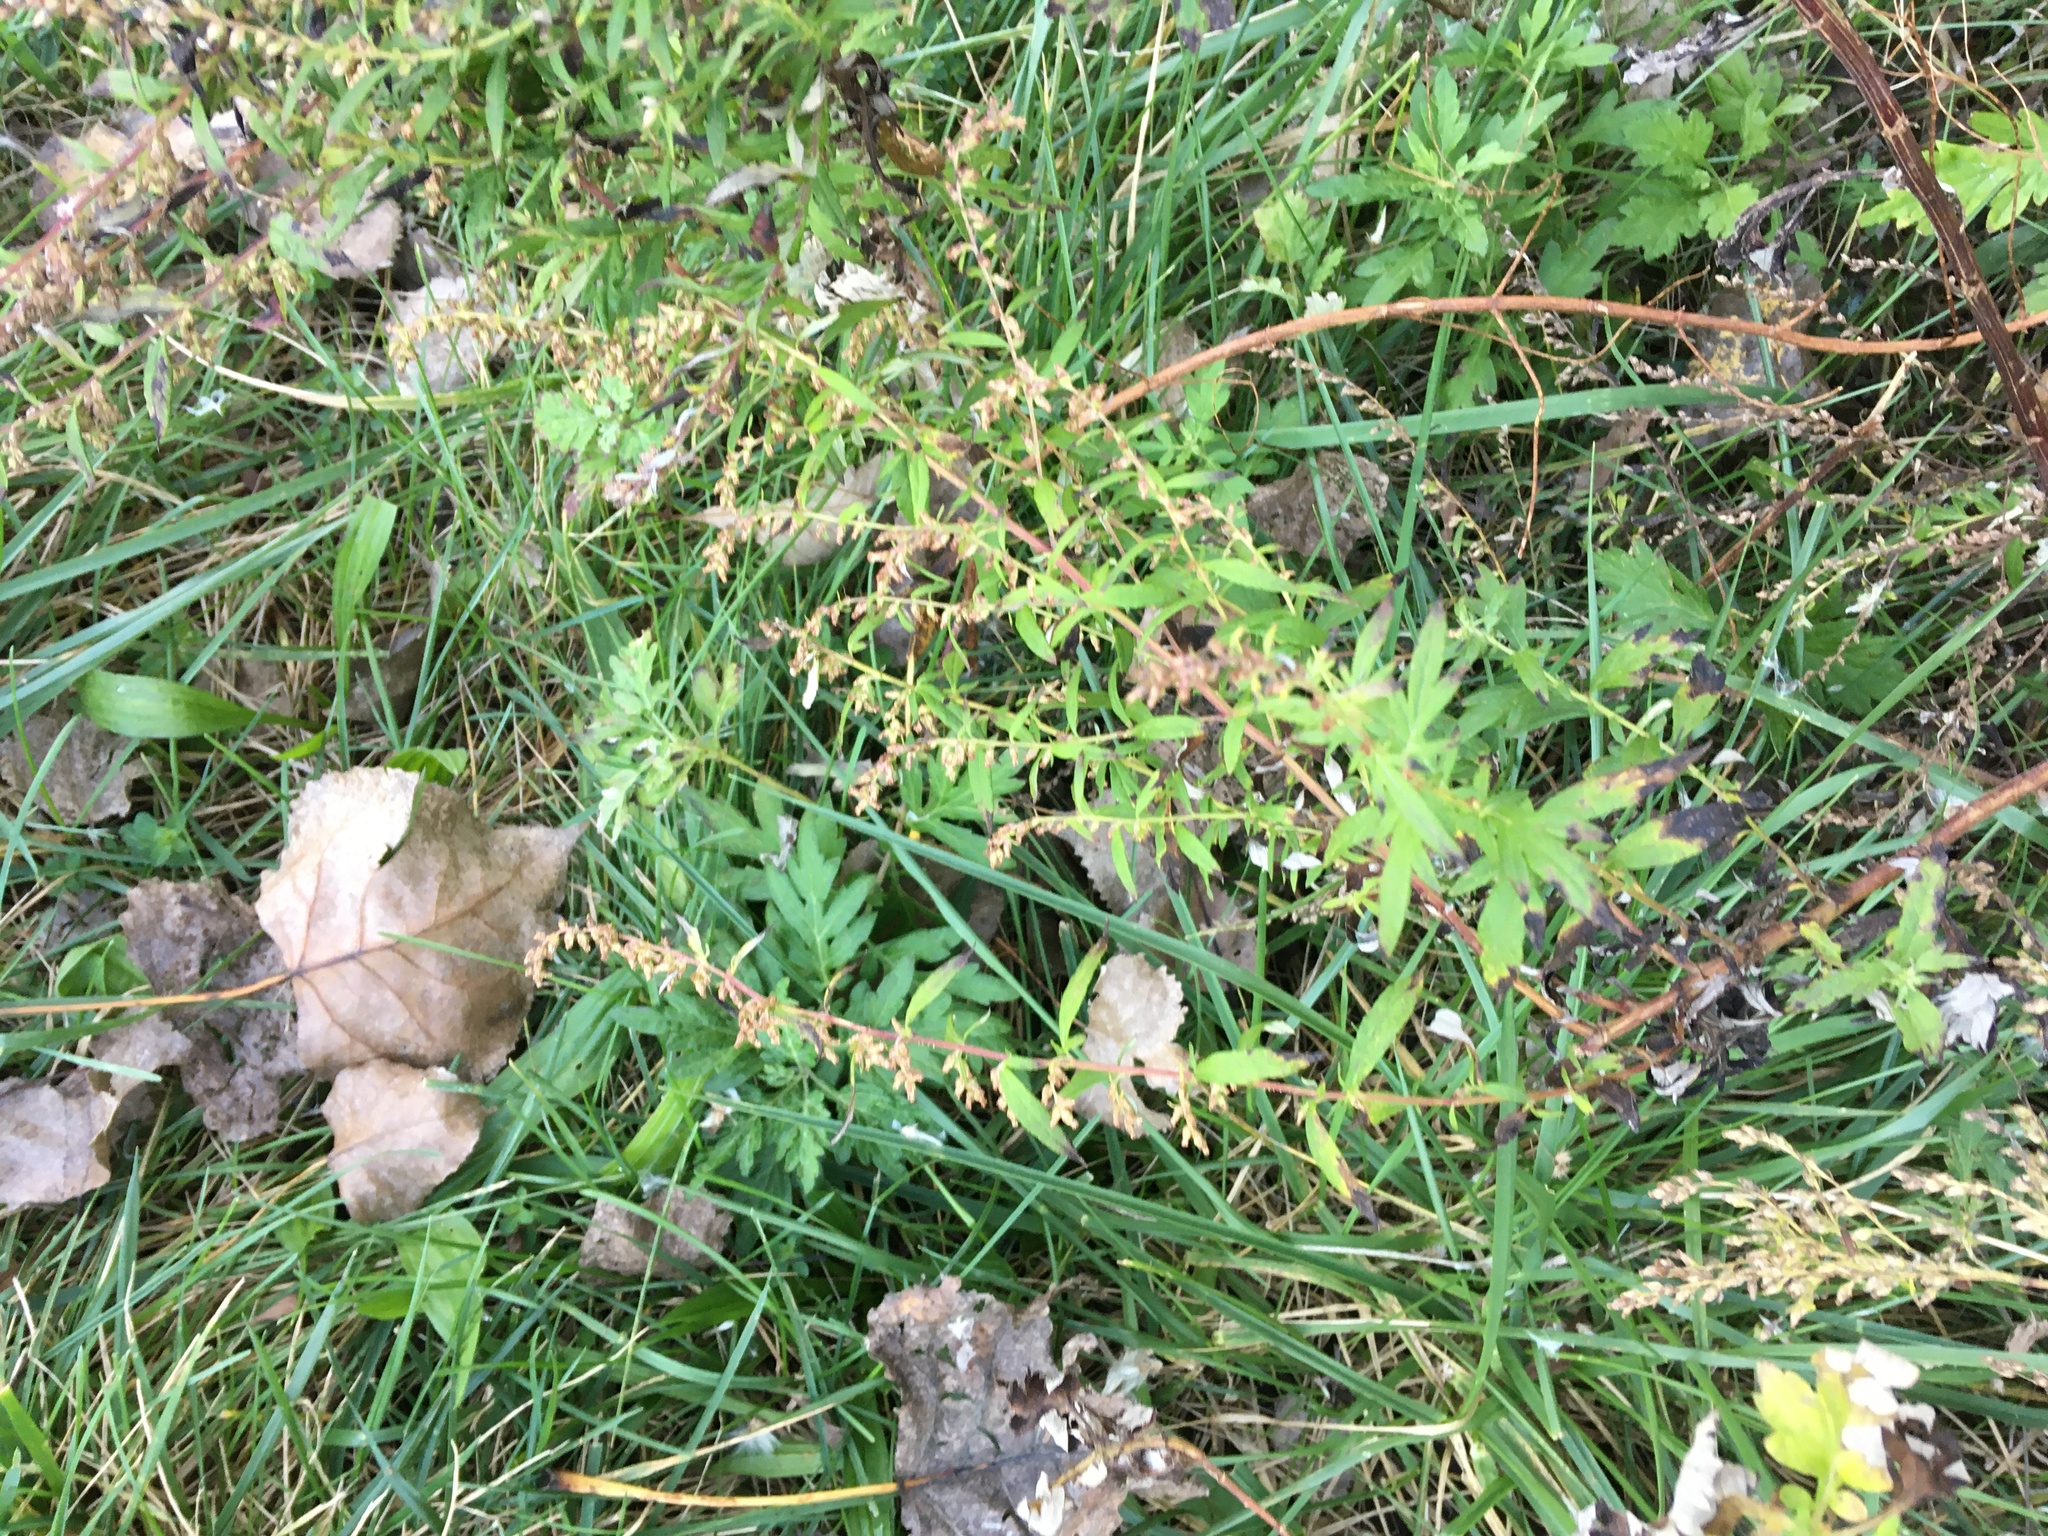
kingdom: Plantae
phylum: Tracheophyta
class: Magnoliopsida
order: Asterales
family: Asteraceae
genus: Artemisia
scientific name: Artemisia vulgaris
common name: Mugwort
